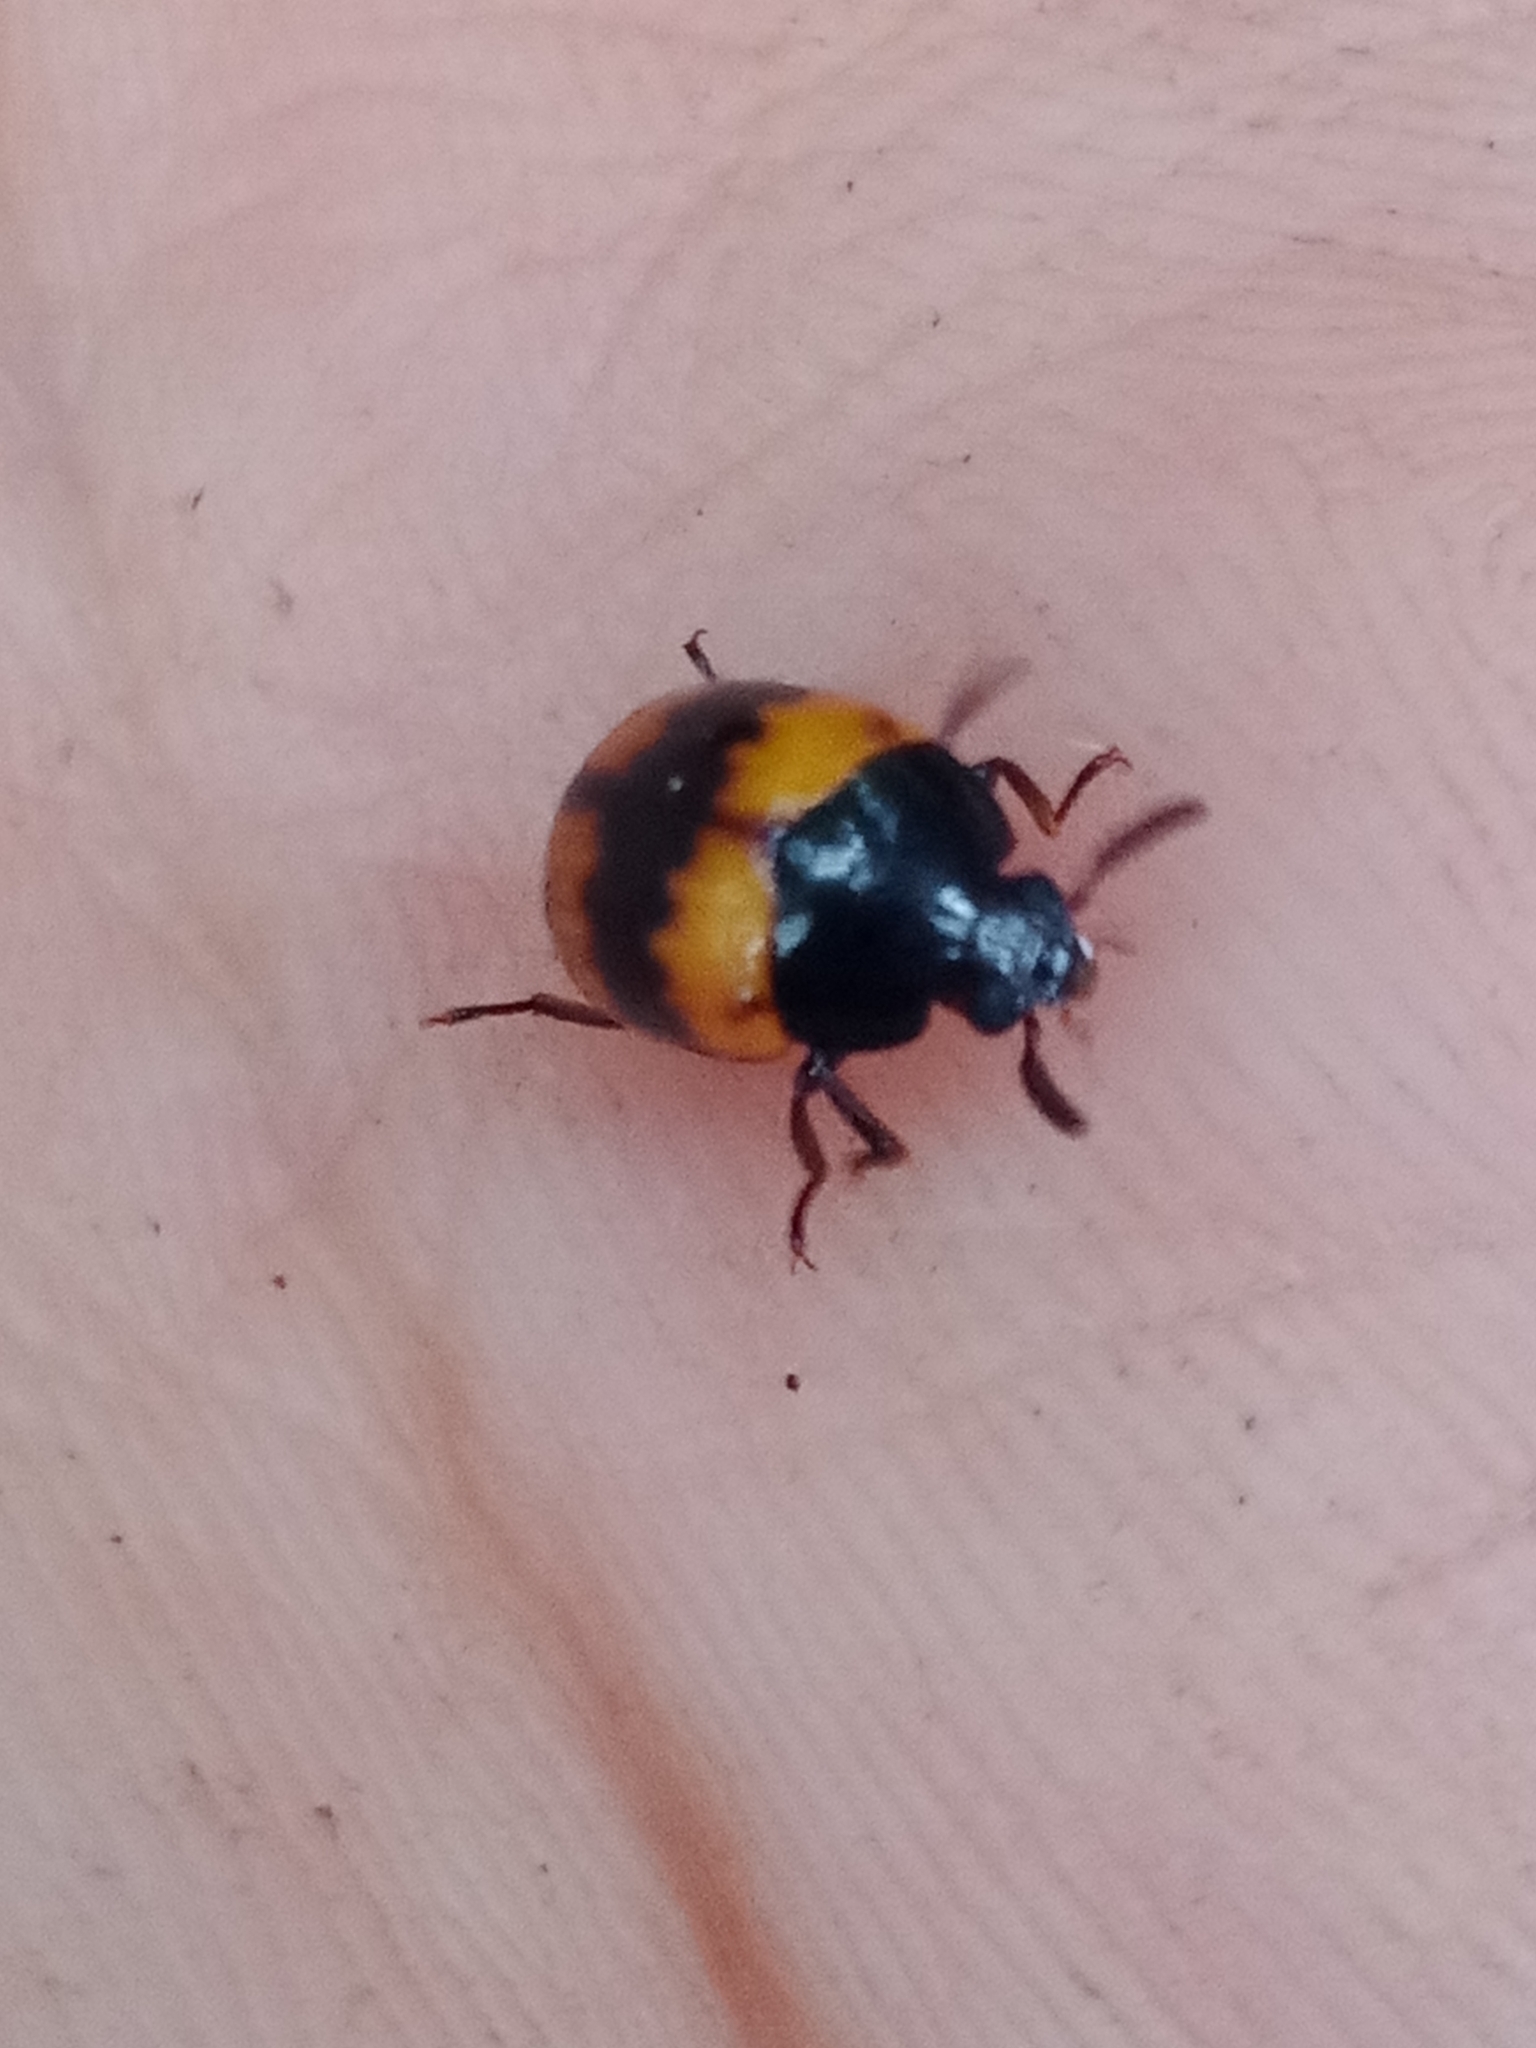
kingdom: Animalia
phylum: Arthropoda
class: Insecta
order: Coleoptera
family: Tenebrionidae
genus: Diaperis
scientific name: Diaperis boleti
